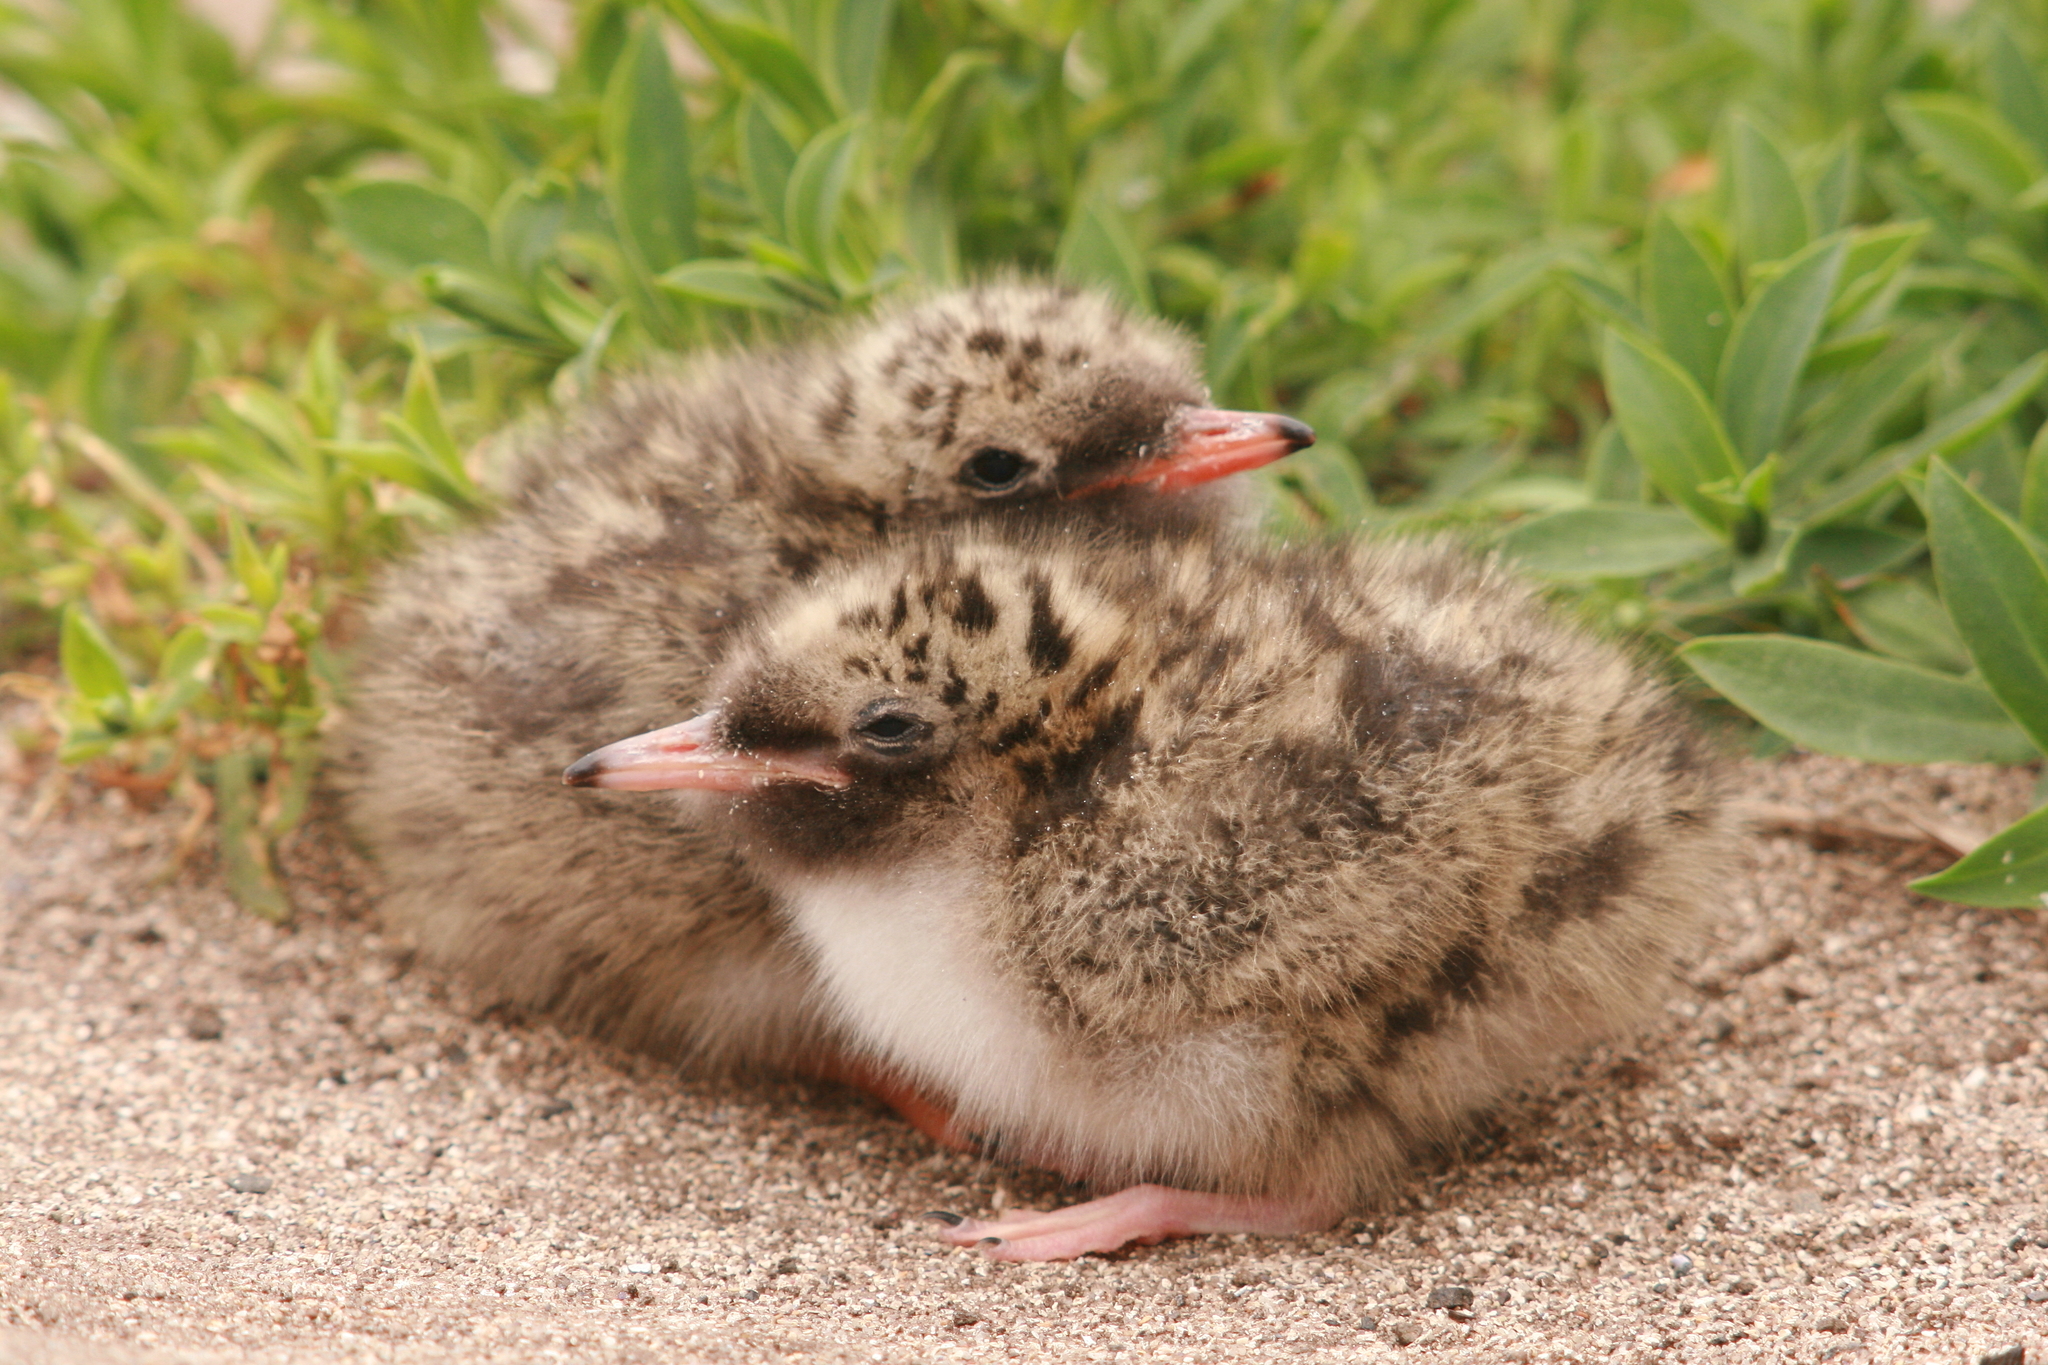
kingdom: Animalia
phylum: Chordata
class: Aves
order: Charadriiformes
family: Laridae
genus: Sterna
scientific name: Sterna paradisaea
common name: Arctic tern
